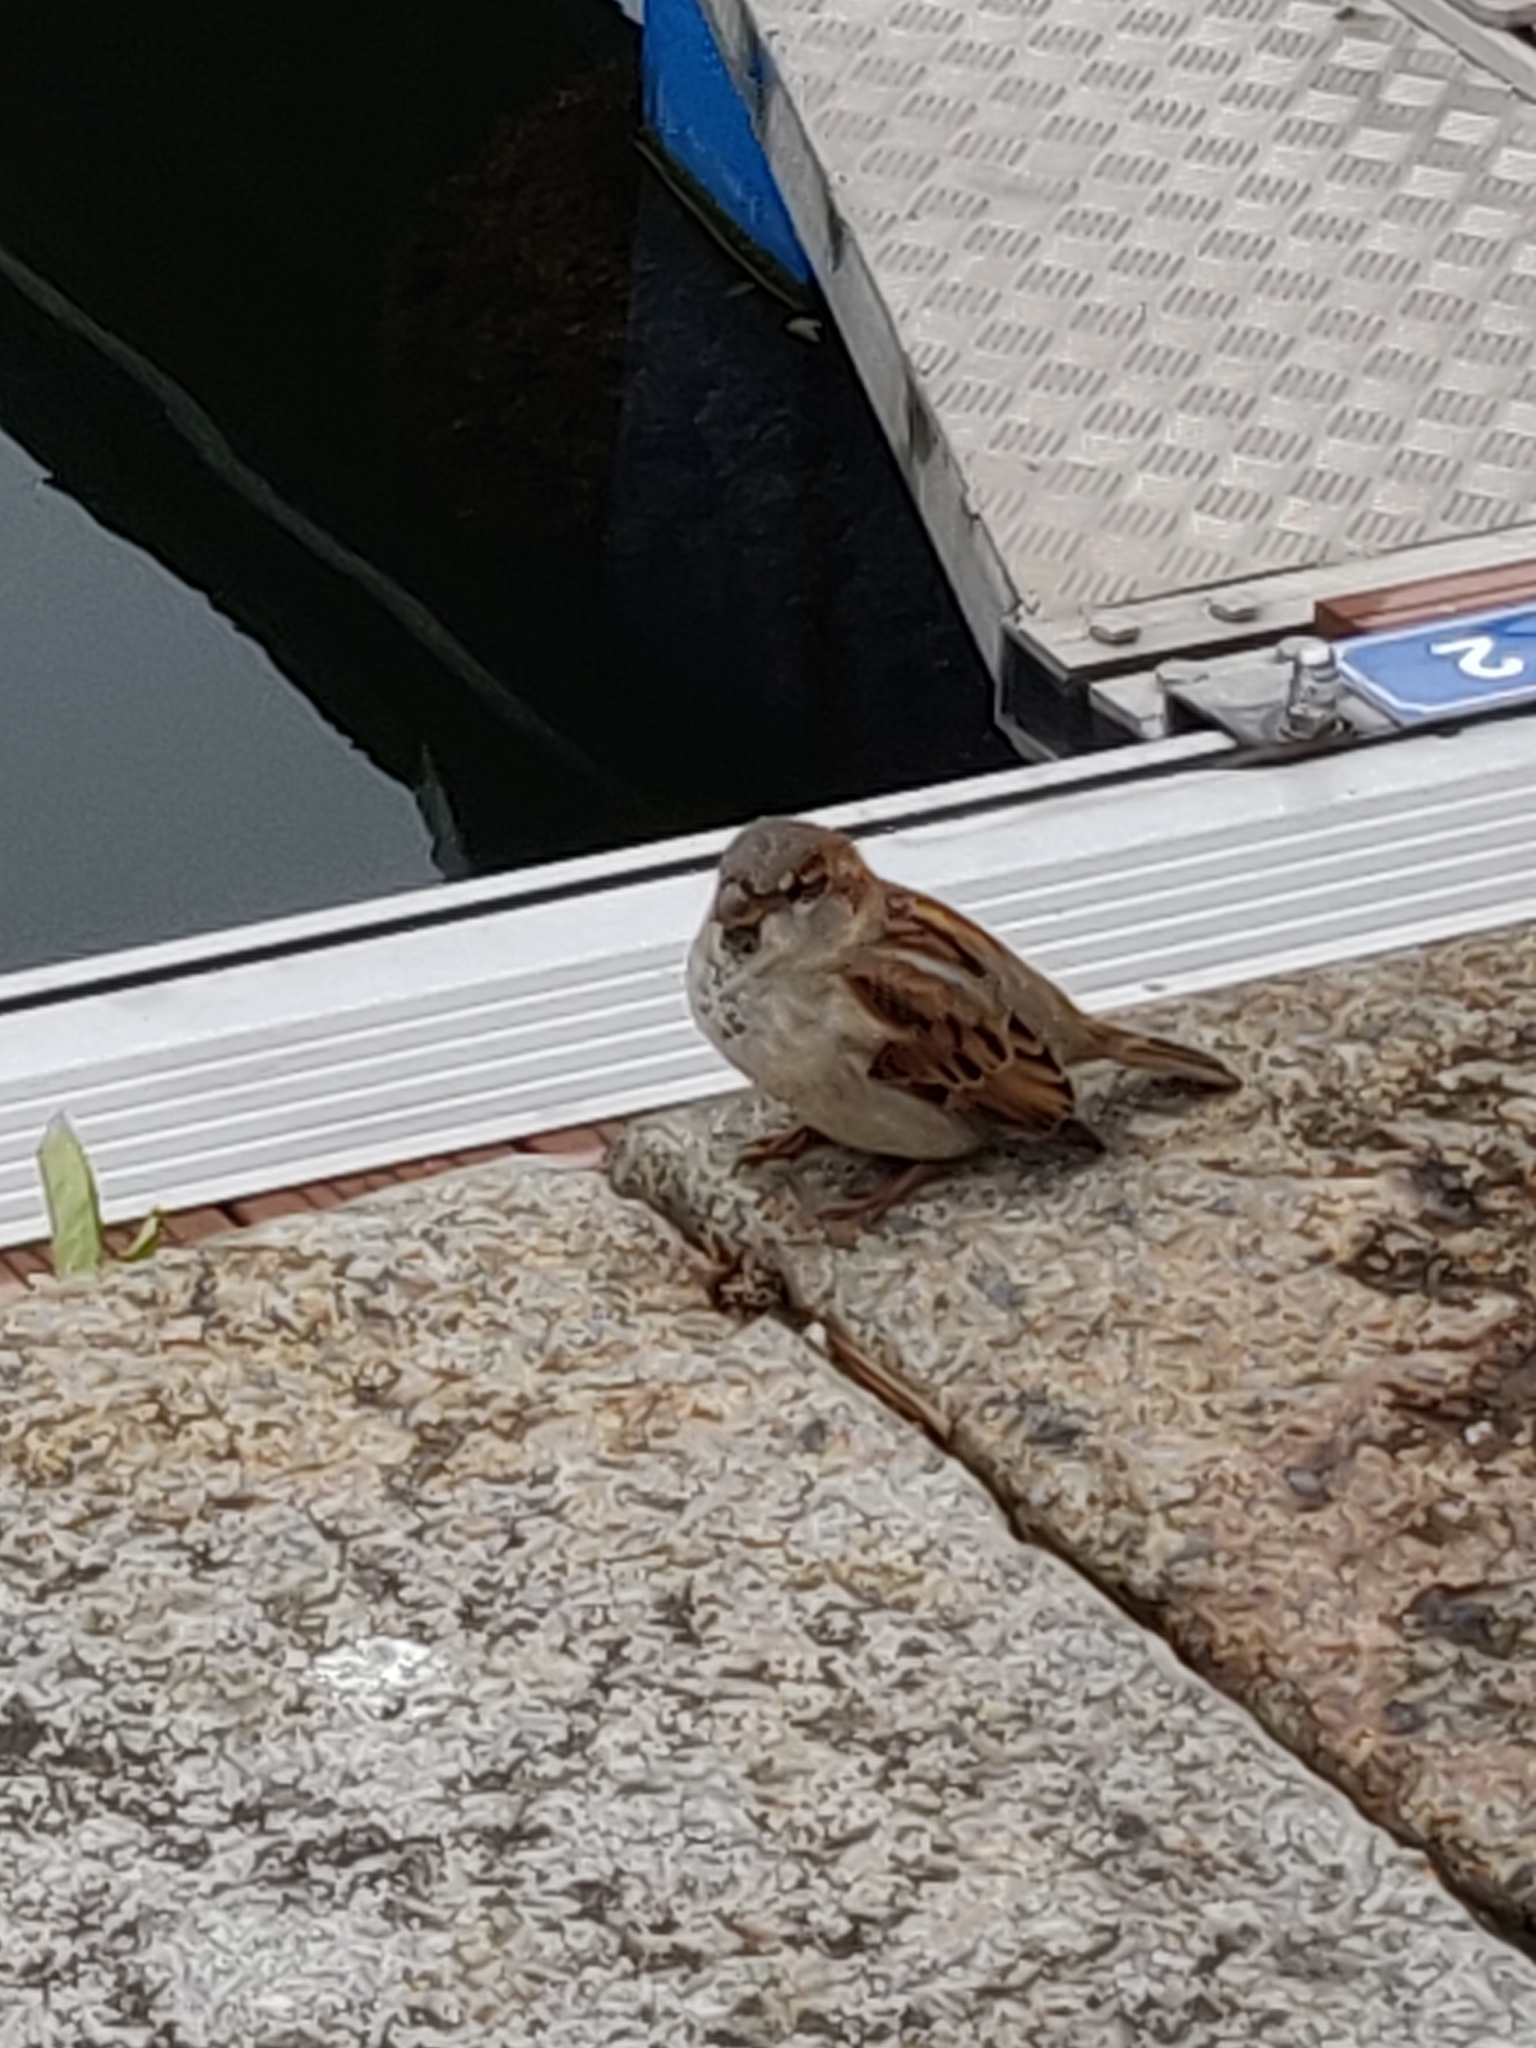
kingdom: Animalia
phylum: Chordata
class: Aves
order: Passeriformes
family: Passeridae
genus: Passer
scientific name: Passer domesticus
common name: House sparrow
